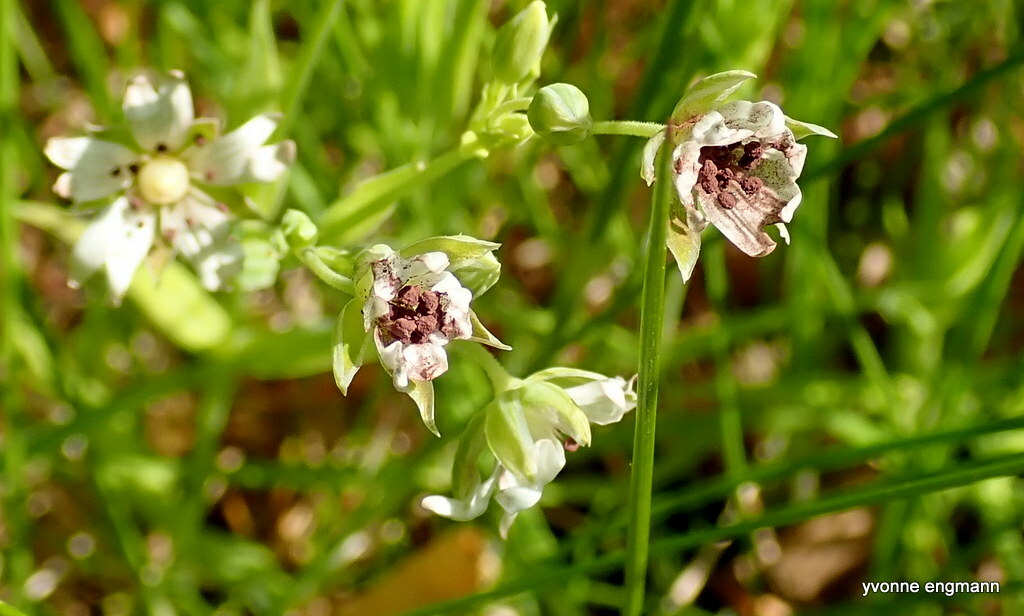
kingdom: Fungi
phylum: Basidiomycota
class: Microbotryomycetes
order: Microbotryales
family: Microbotryaceae
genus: Microbotryum
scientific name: Microbotryum stellariae
